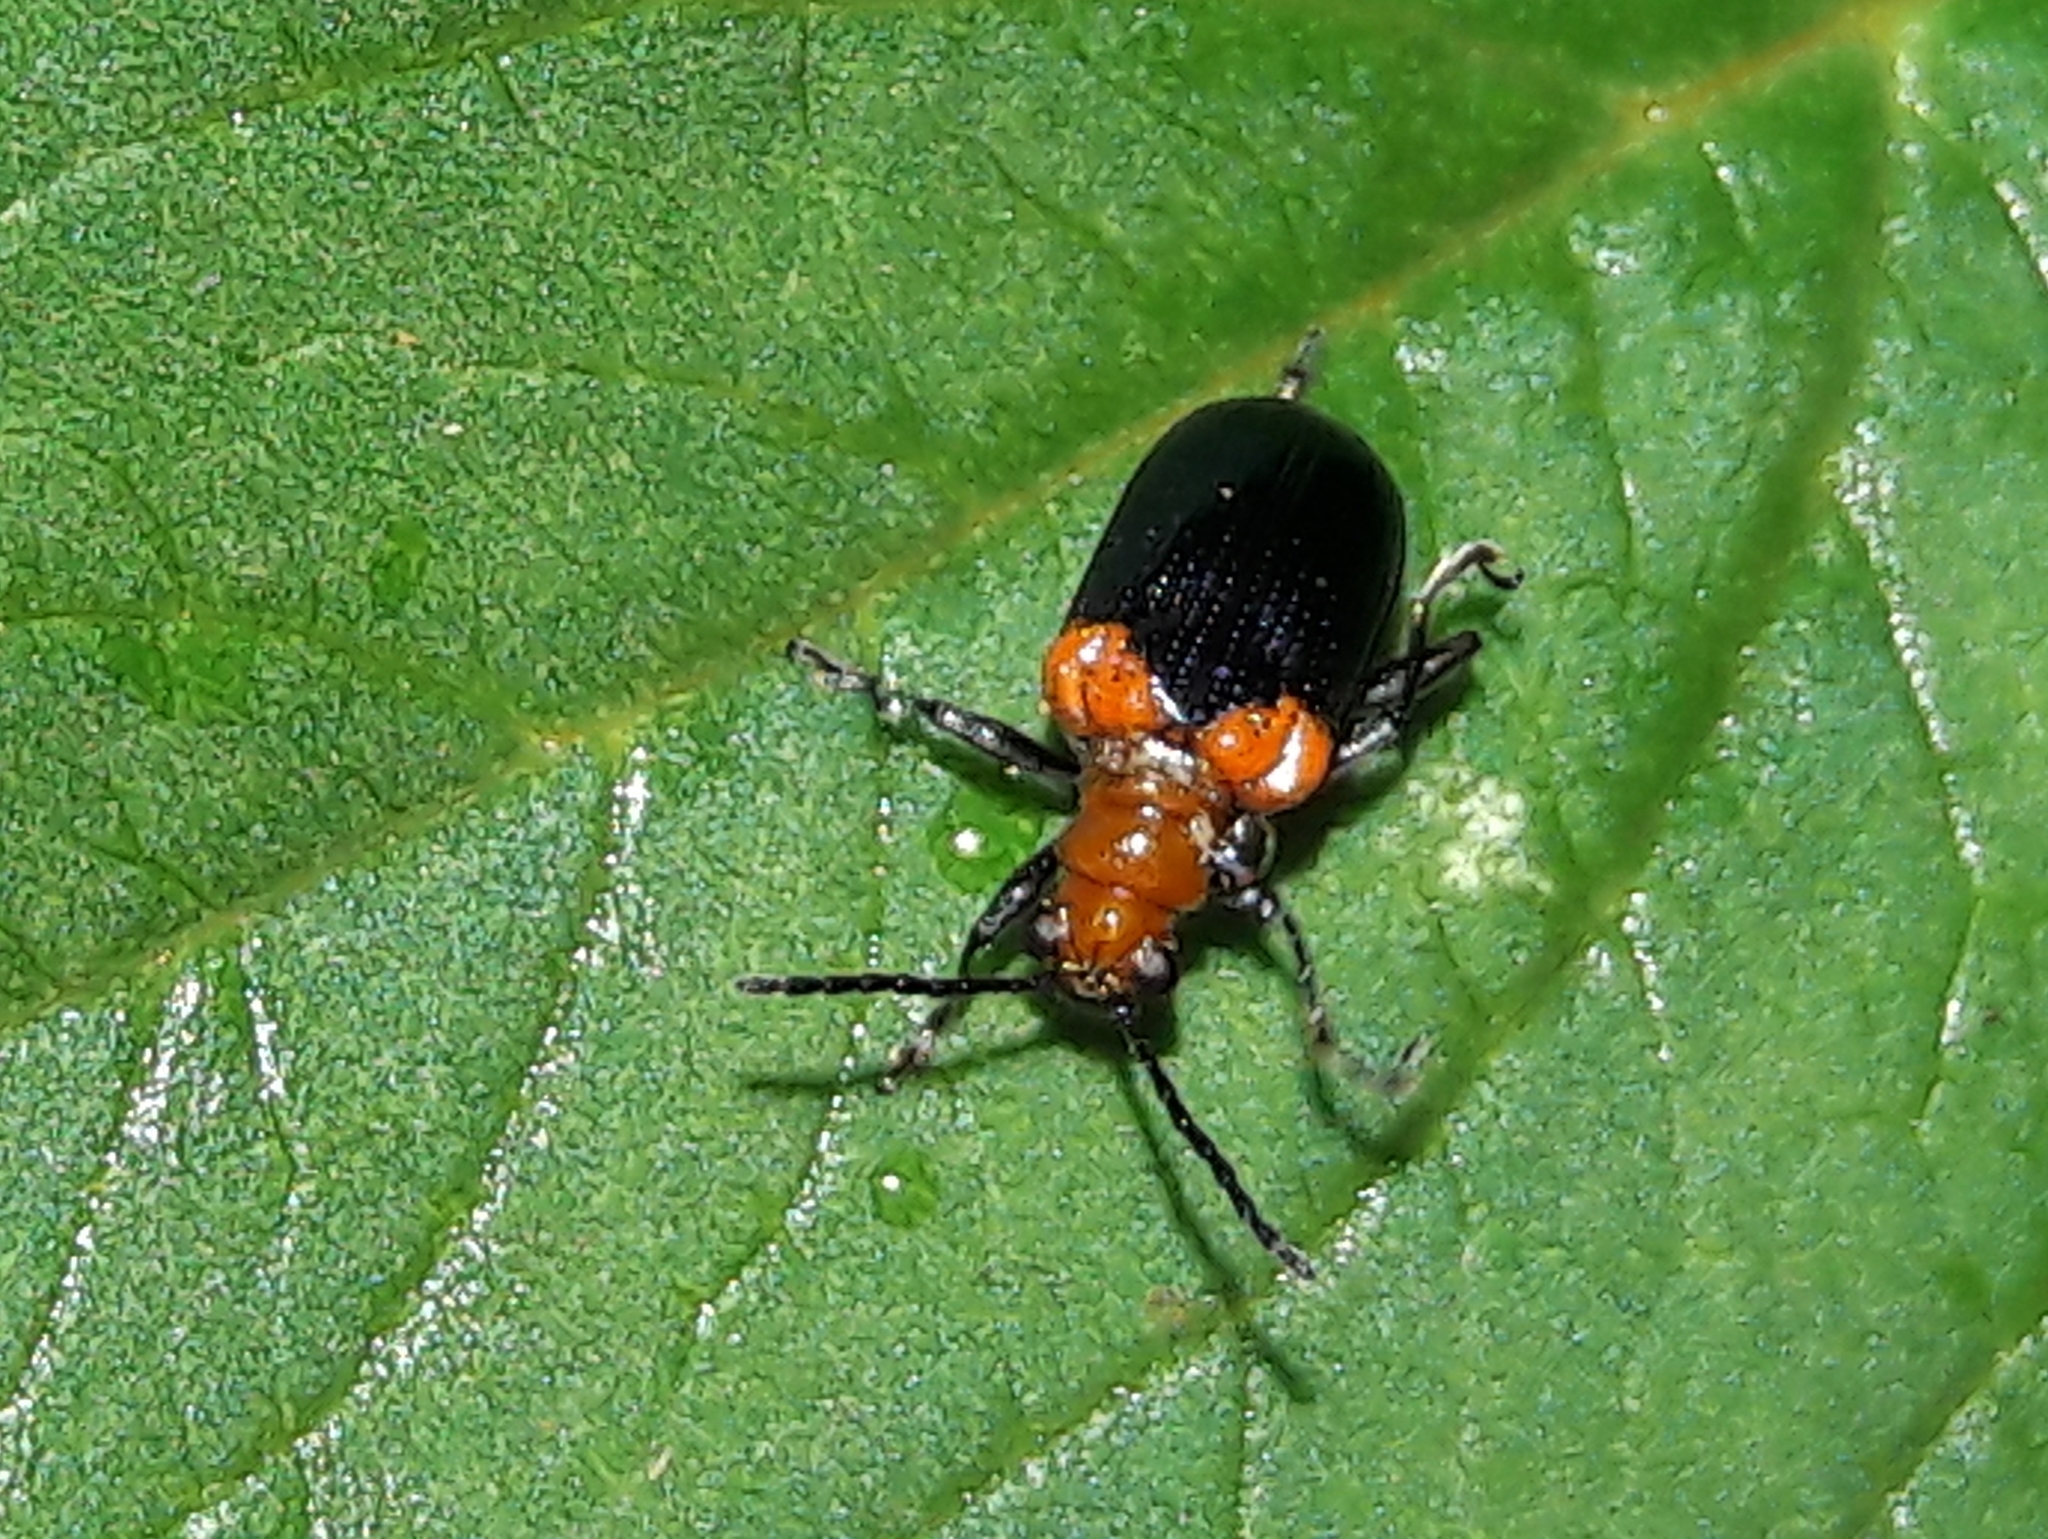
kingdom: Animalia
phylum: Arthropoda
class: Insecta
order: Coleoptera
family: Chrysomelidae
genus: Neolema
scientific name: Neolema
